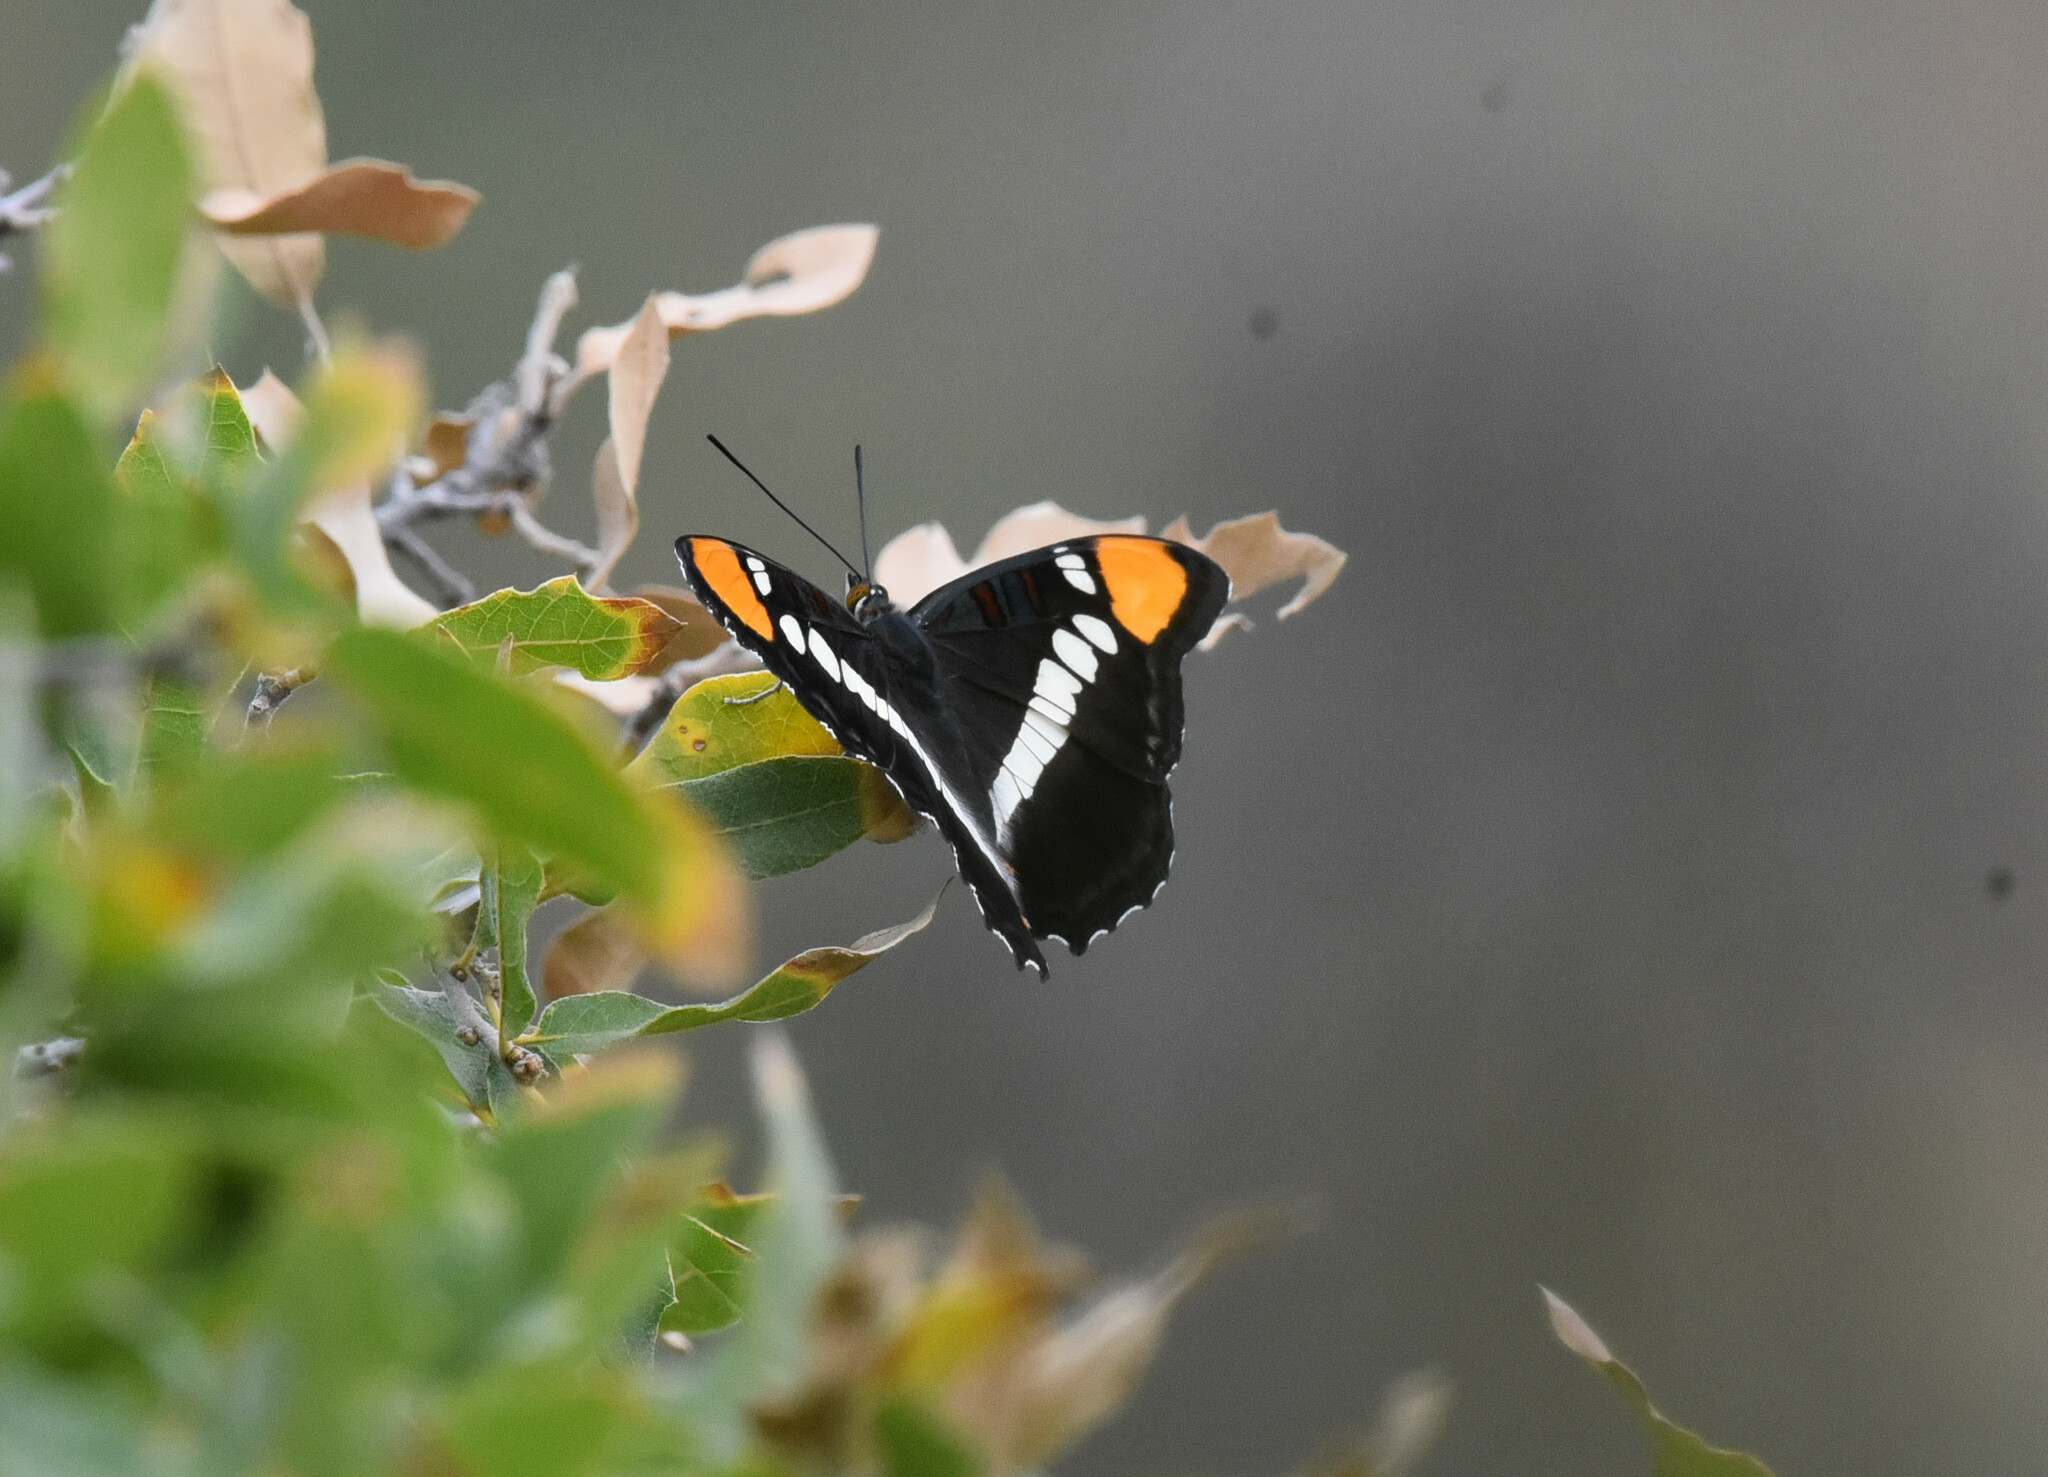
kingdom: Animalia
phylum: Arthropoda
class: Insecta
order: Lepidoptera
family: Nymphalidae
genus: Limenitis
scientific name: Limenitis bredowii
